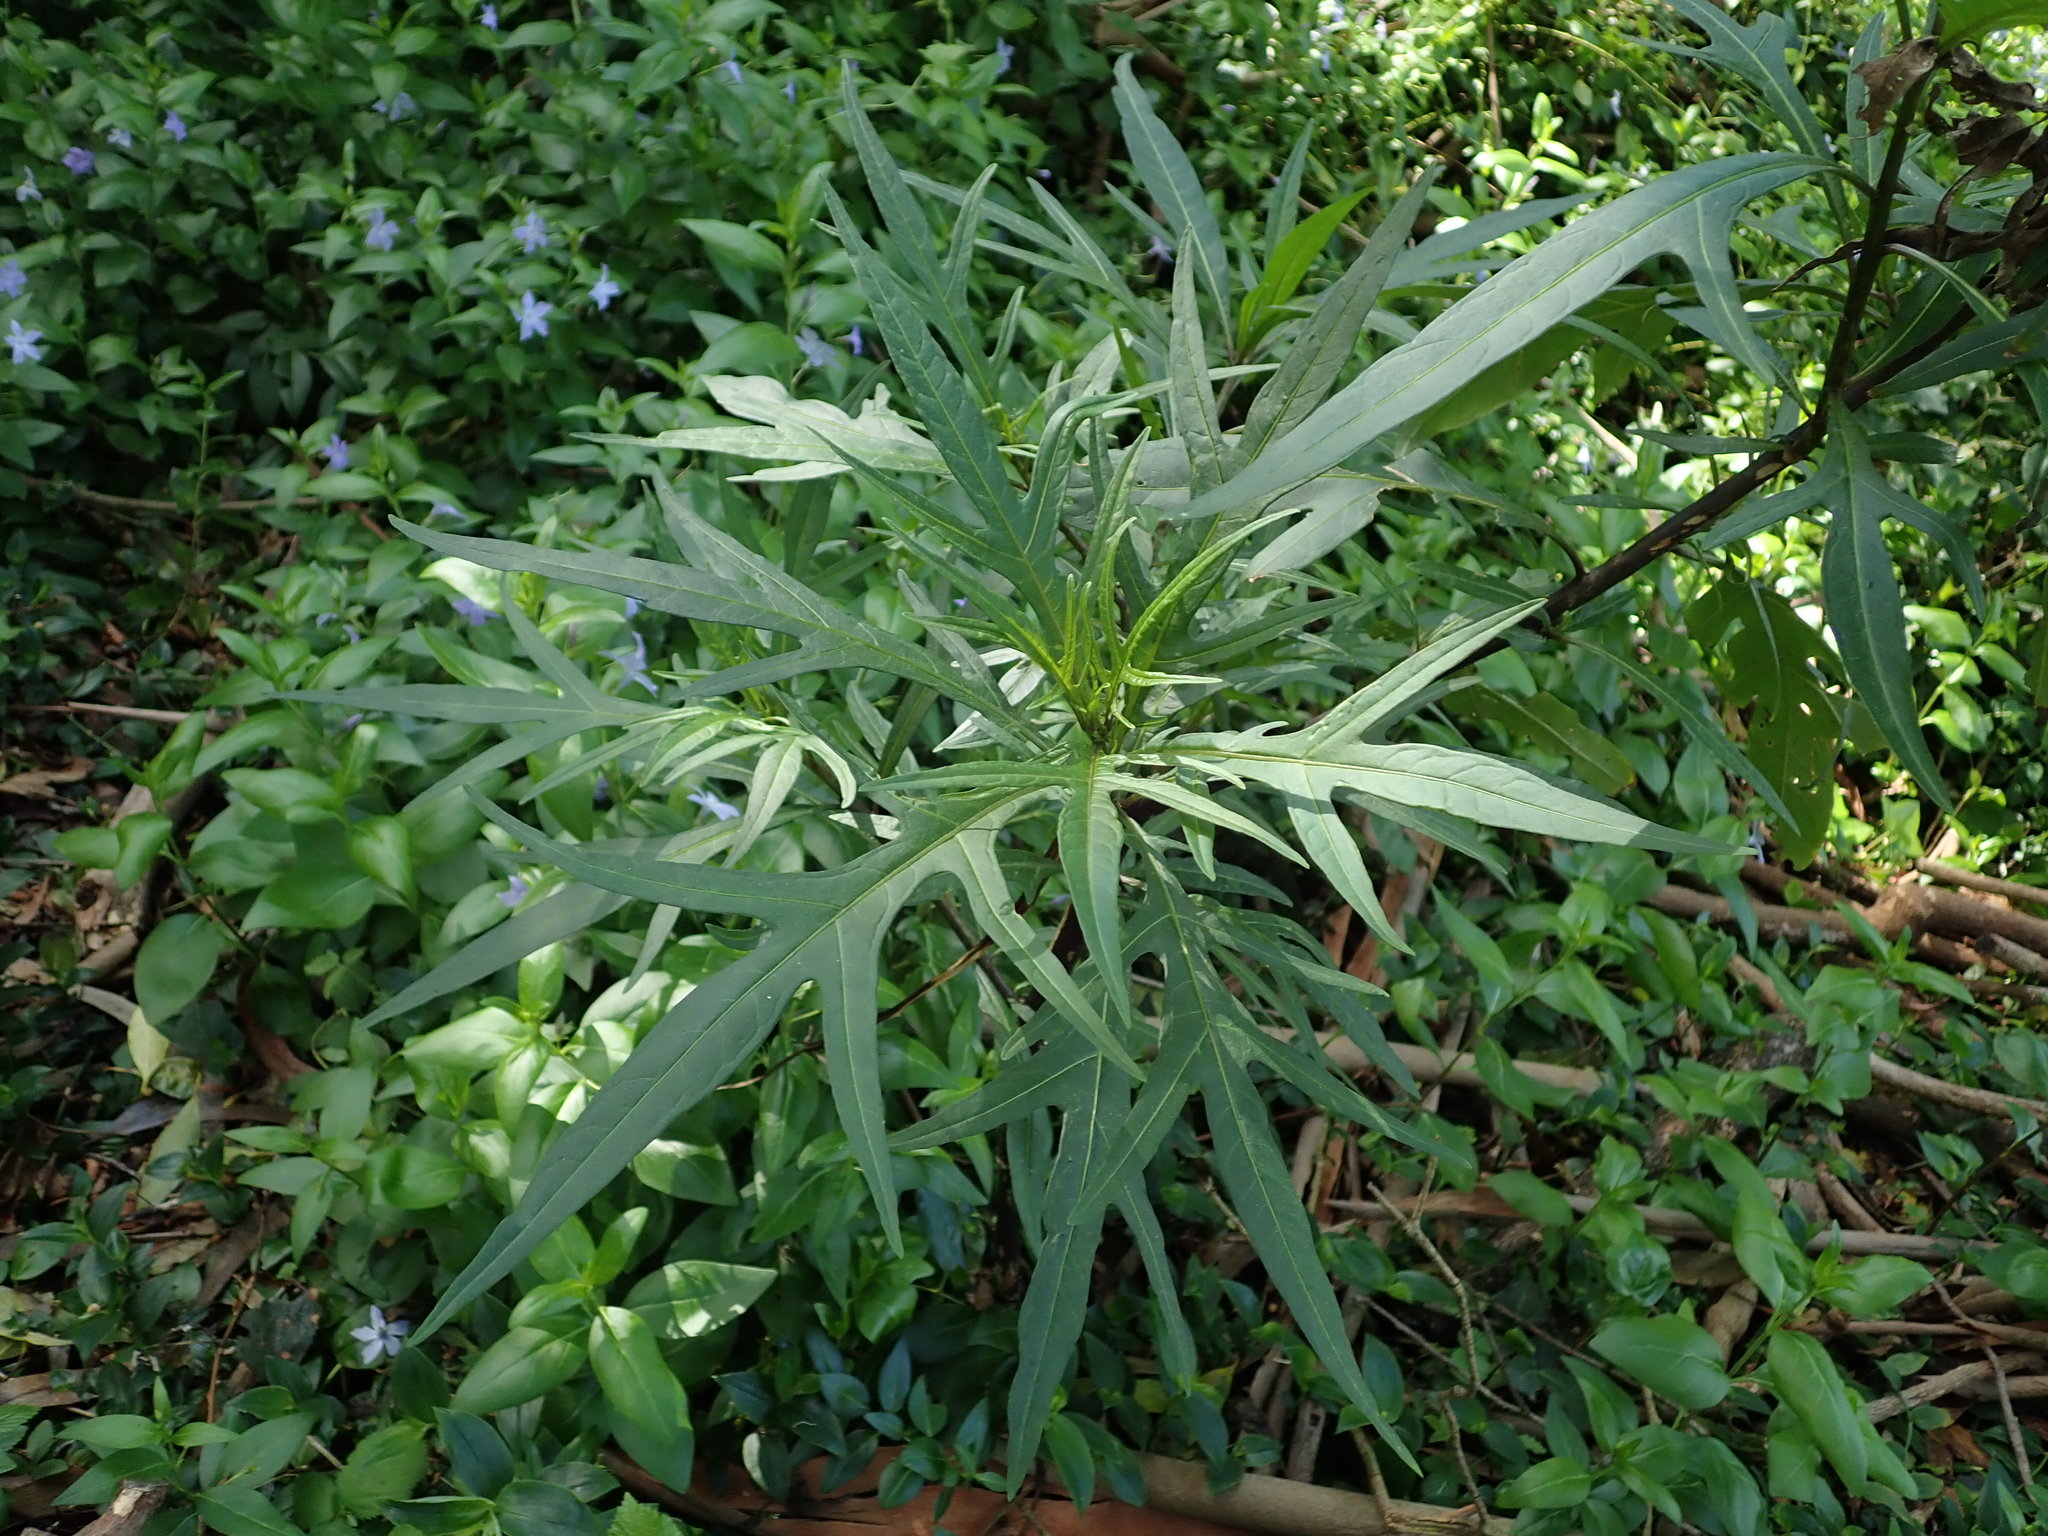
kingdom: Plantae
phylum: Tracheophyta
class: Magnoliopsida
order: Solanales
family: Solanaceae
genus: Solanum
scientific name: Solanum laciniatum
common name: Kangaroo-apple
